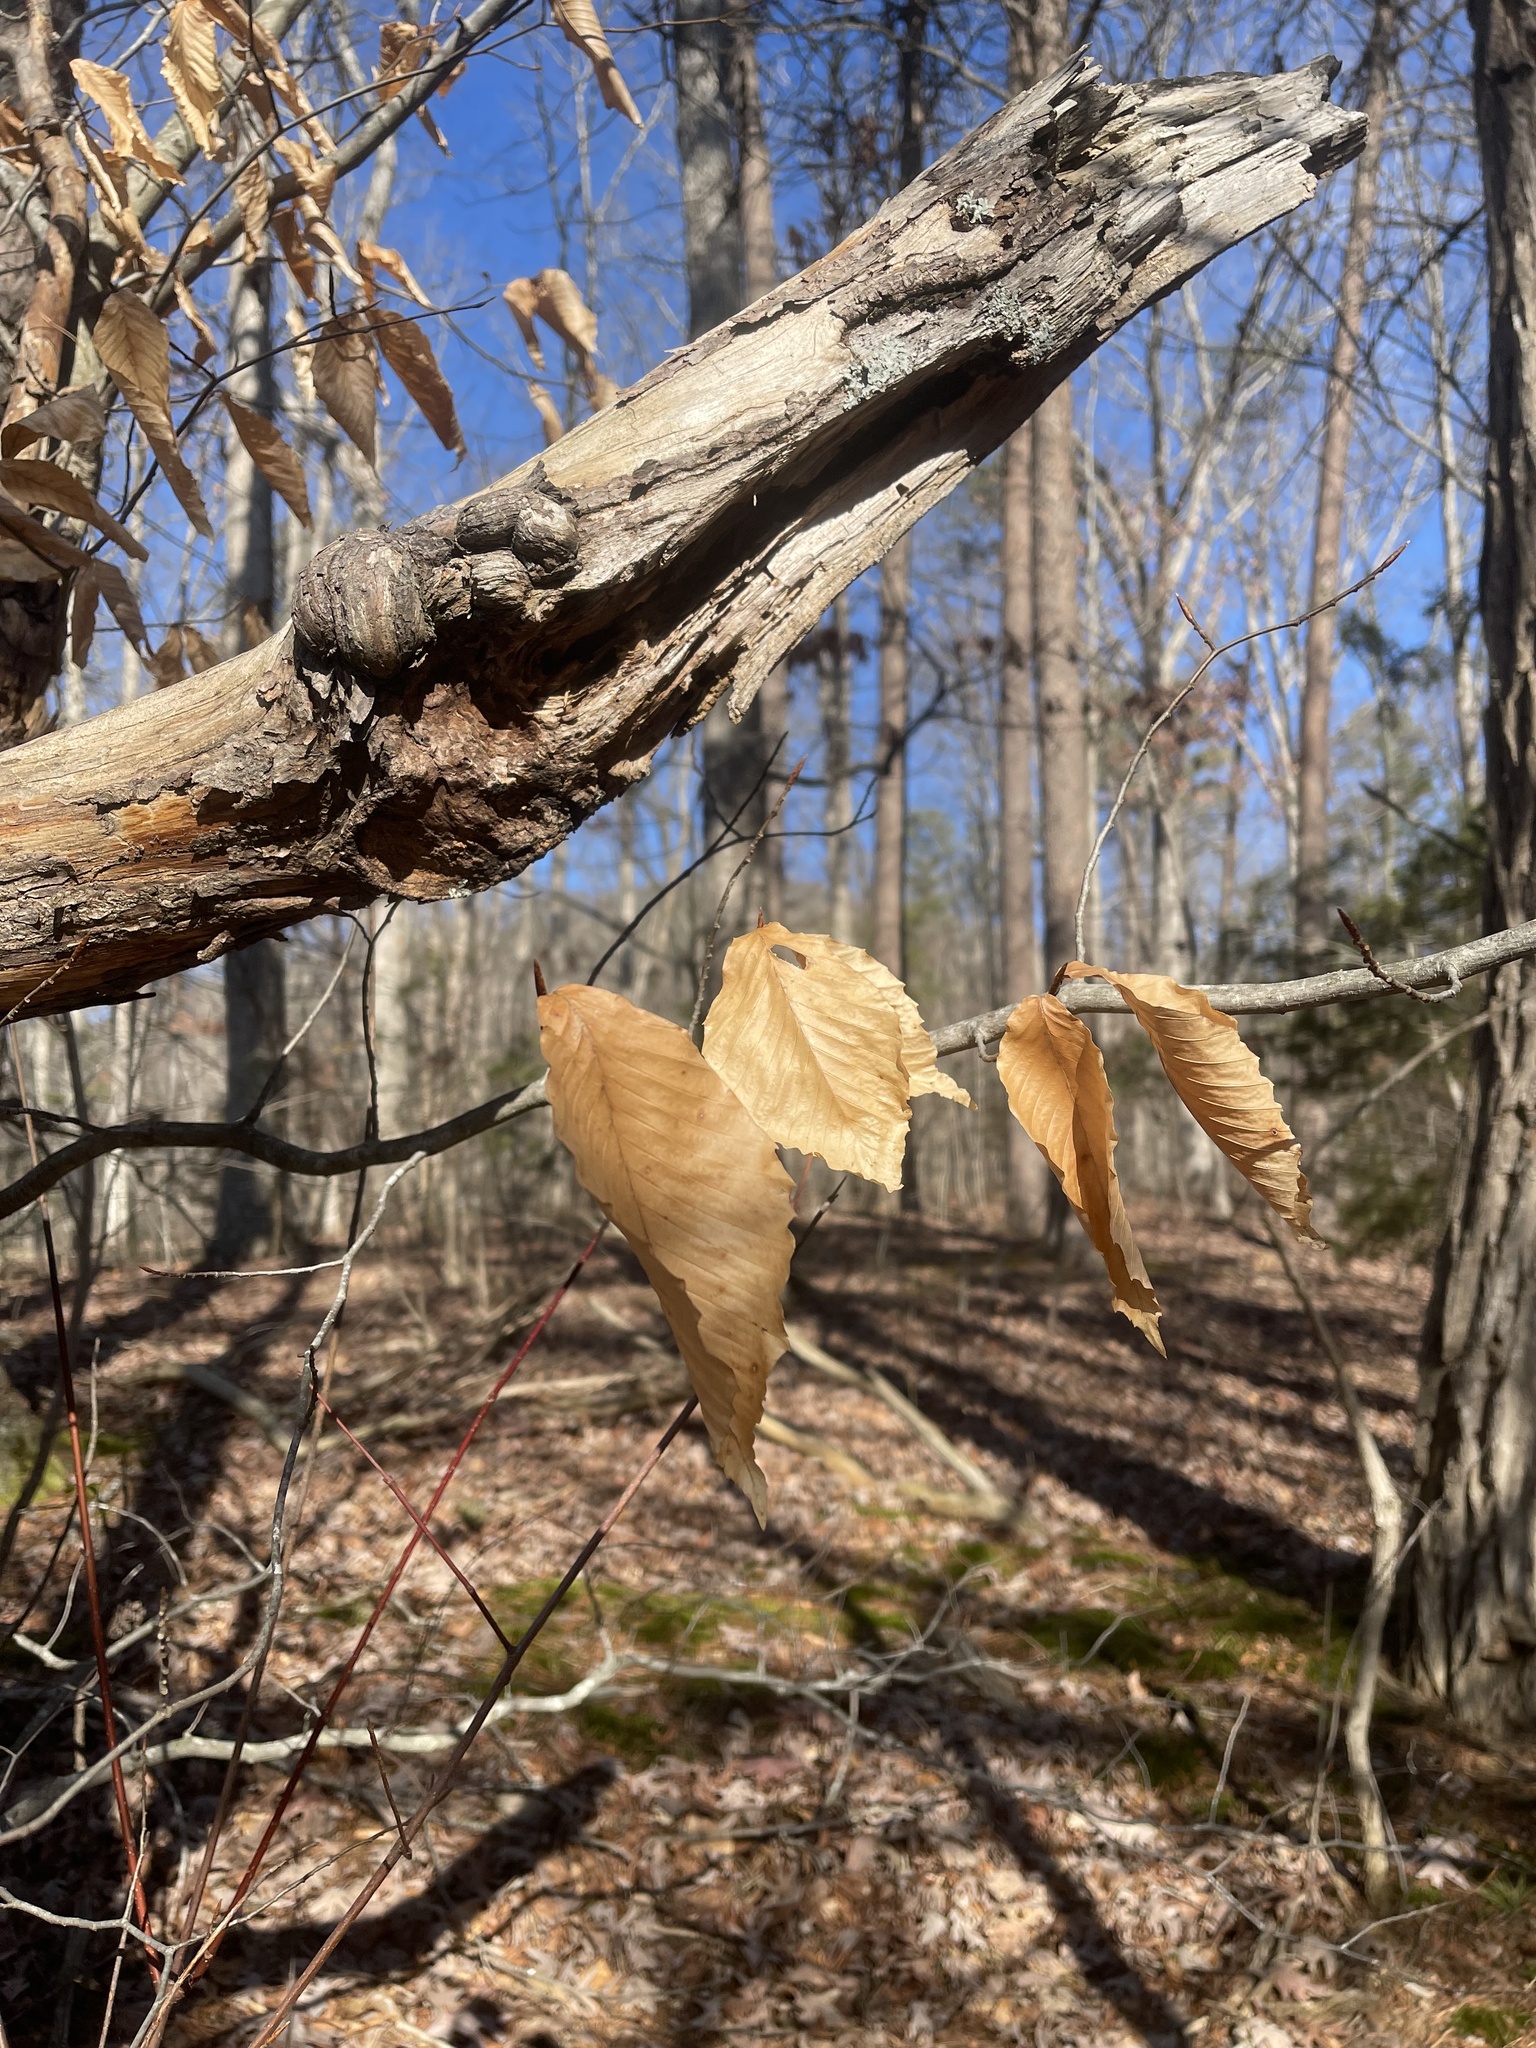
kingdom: Plantae
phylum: Tracheophyta
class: Magnoliopsida
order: Fagales
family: Fagaceae
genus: Fagus
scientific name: Fagus grandifolia
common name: American beech
